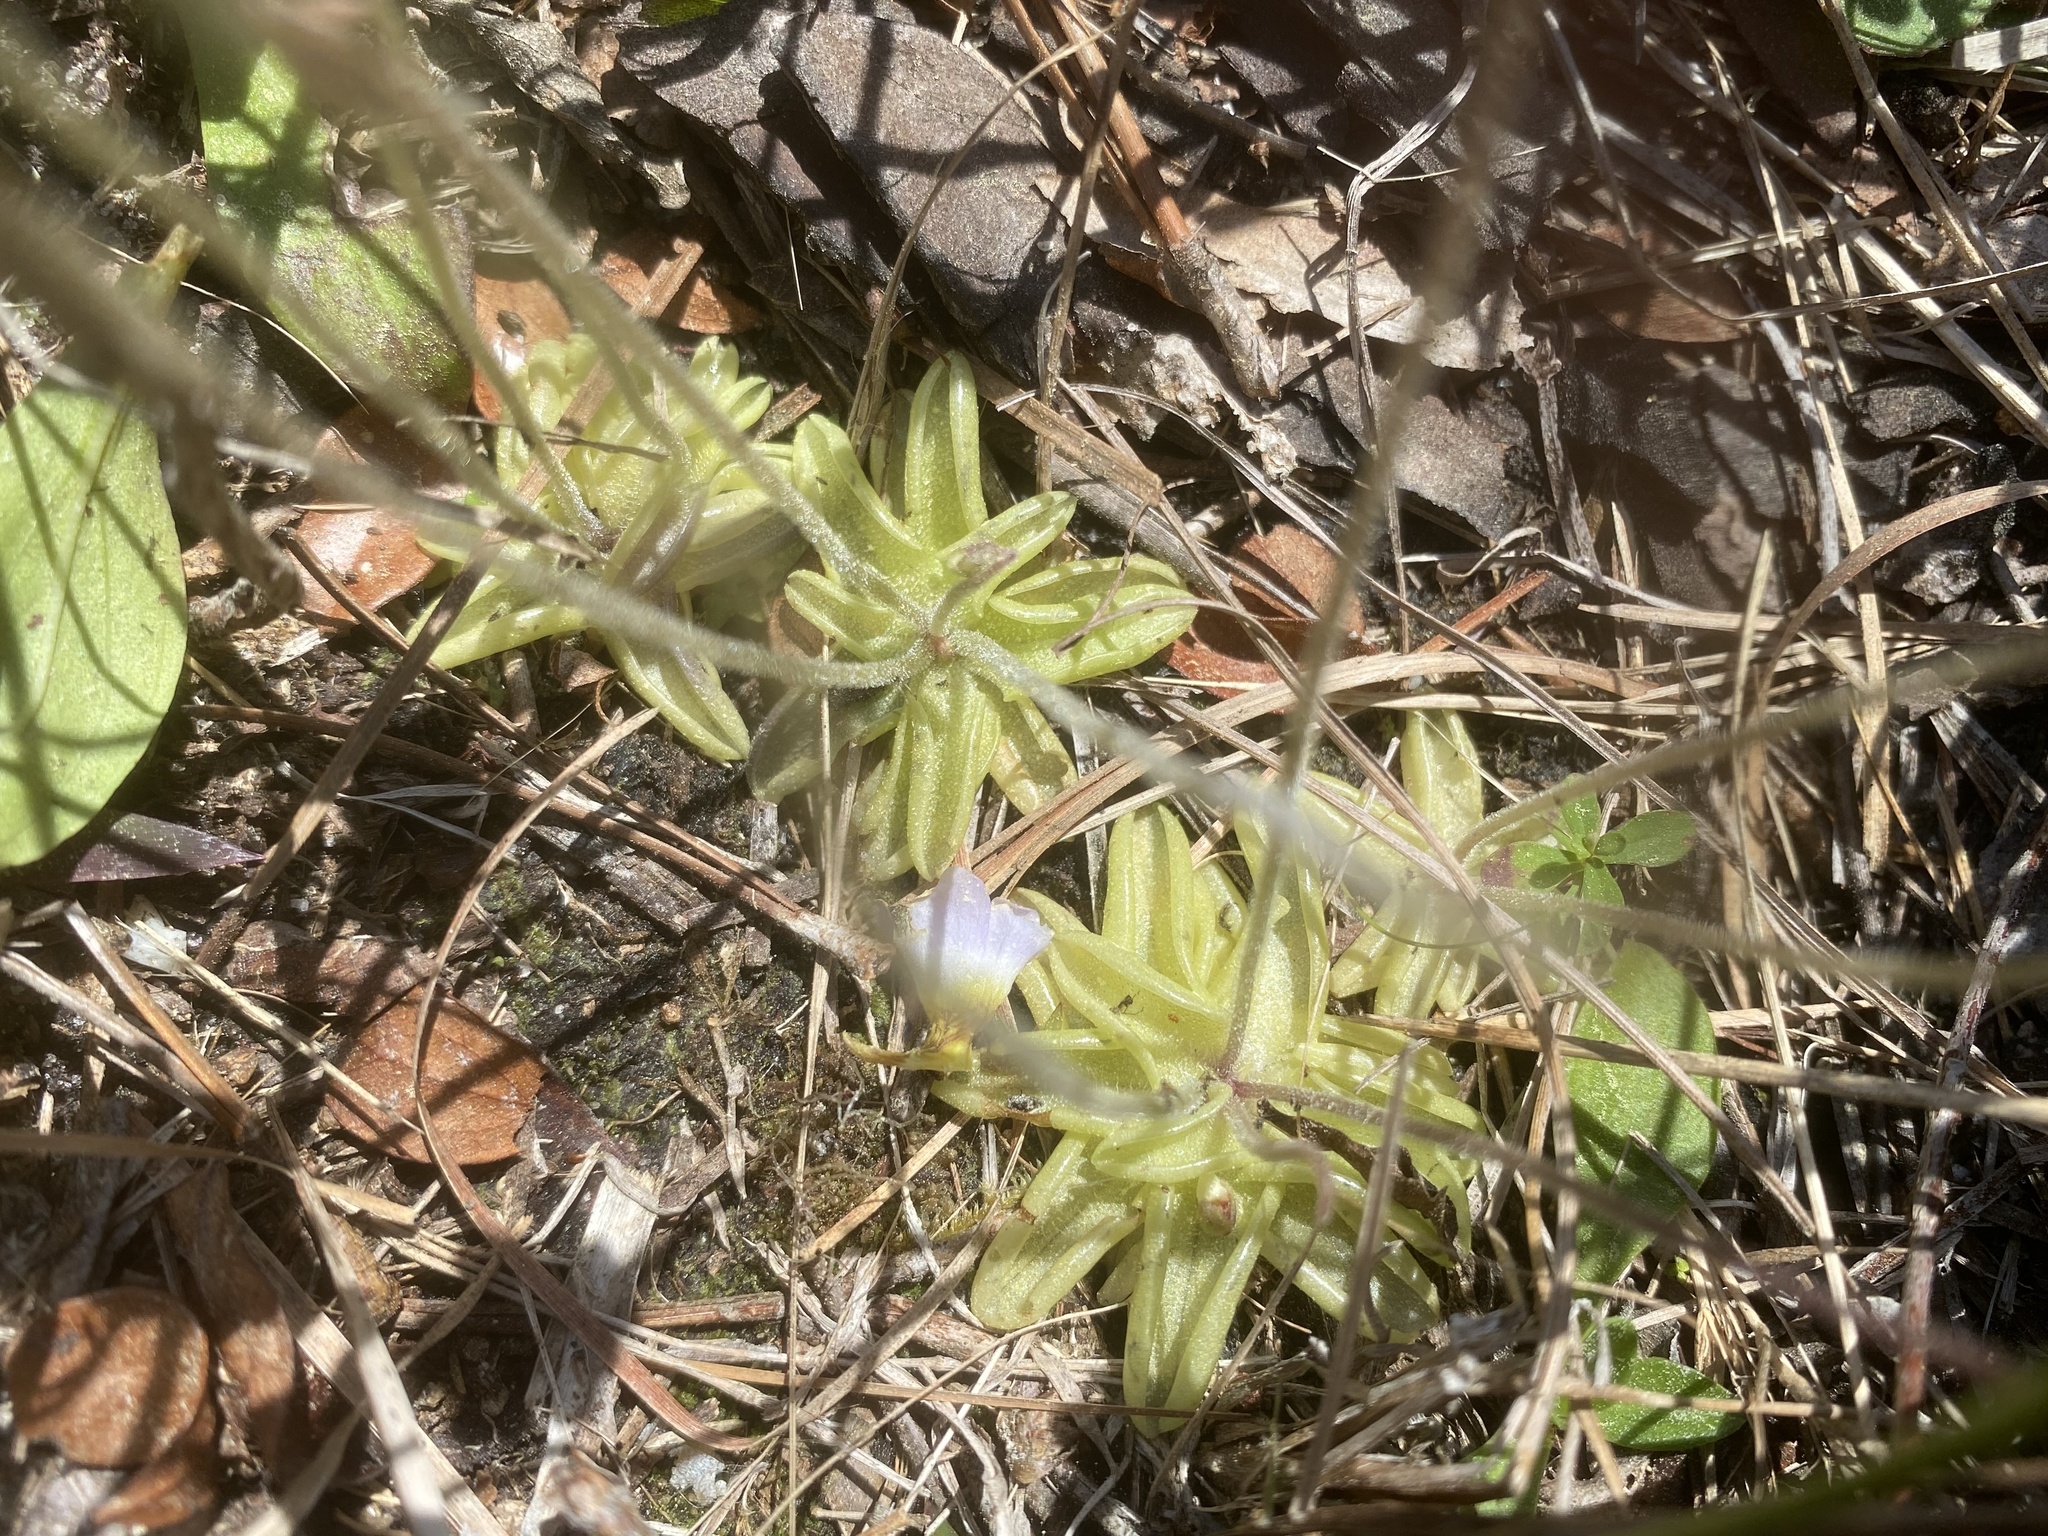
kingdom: Plantae
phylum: Tracheophyta
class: Magnoliopsida
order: Lamiales
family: Lentibulariaceae
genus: Pinguicula
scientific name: Pinguicula pumila
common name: Small butterwort
